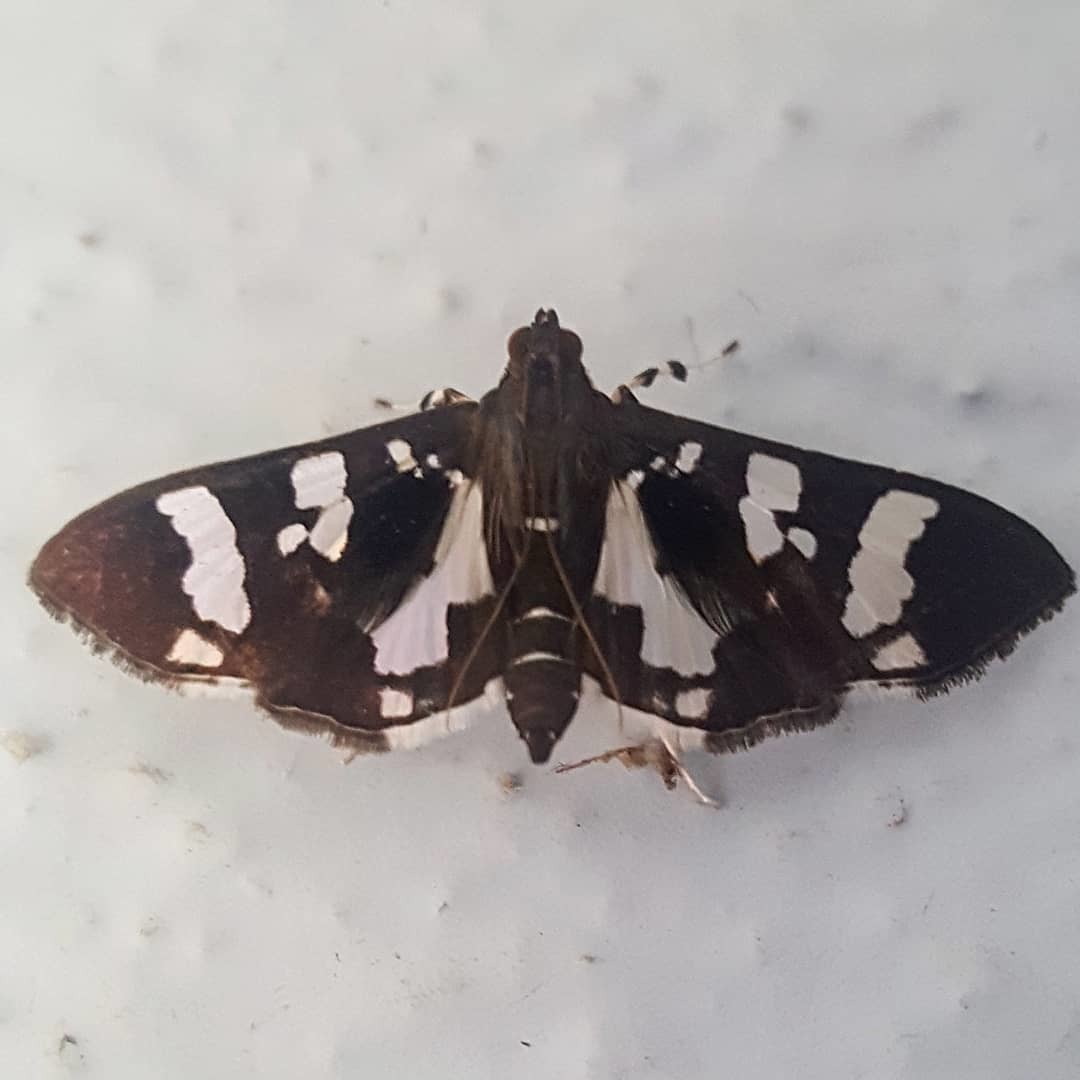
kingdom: Animalia
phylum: Arthropoda
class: Insecta
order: Lepidoptera
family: Crambidae
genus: Desmia
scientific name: Desmia bajulalis
